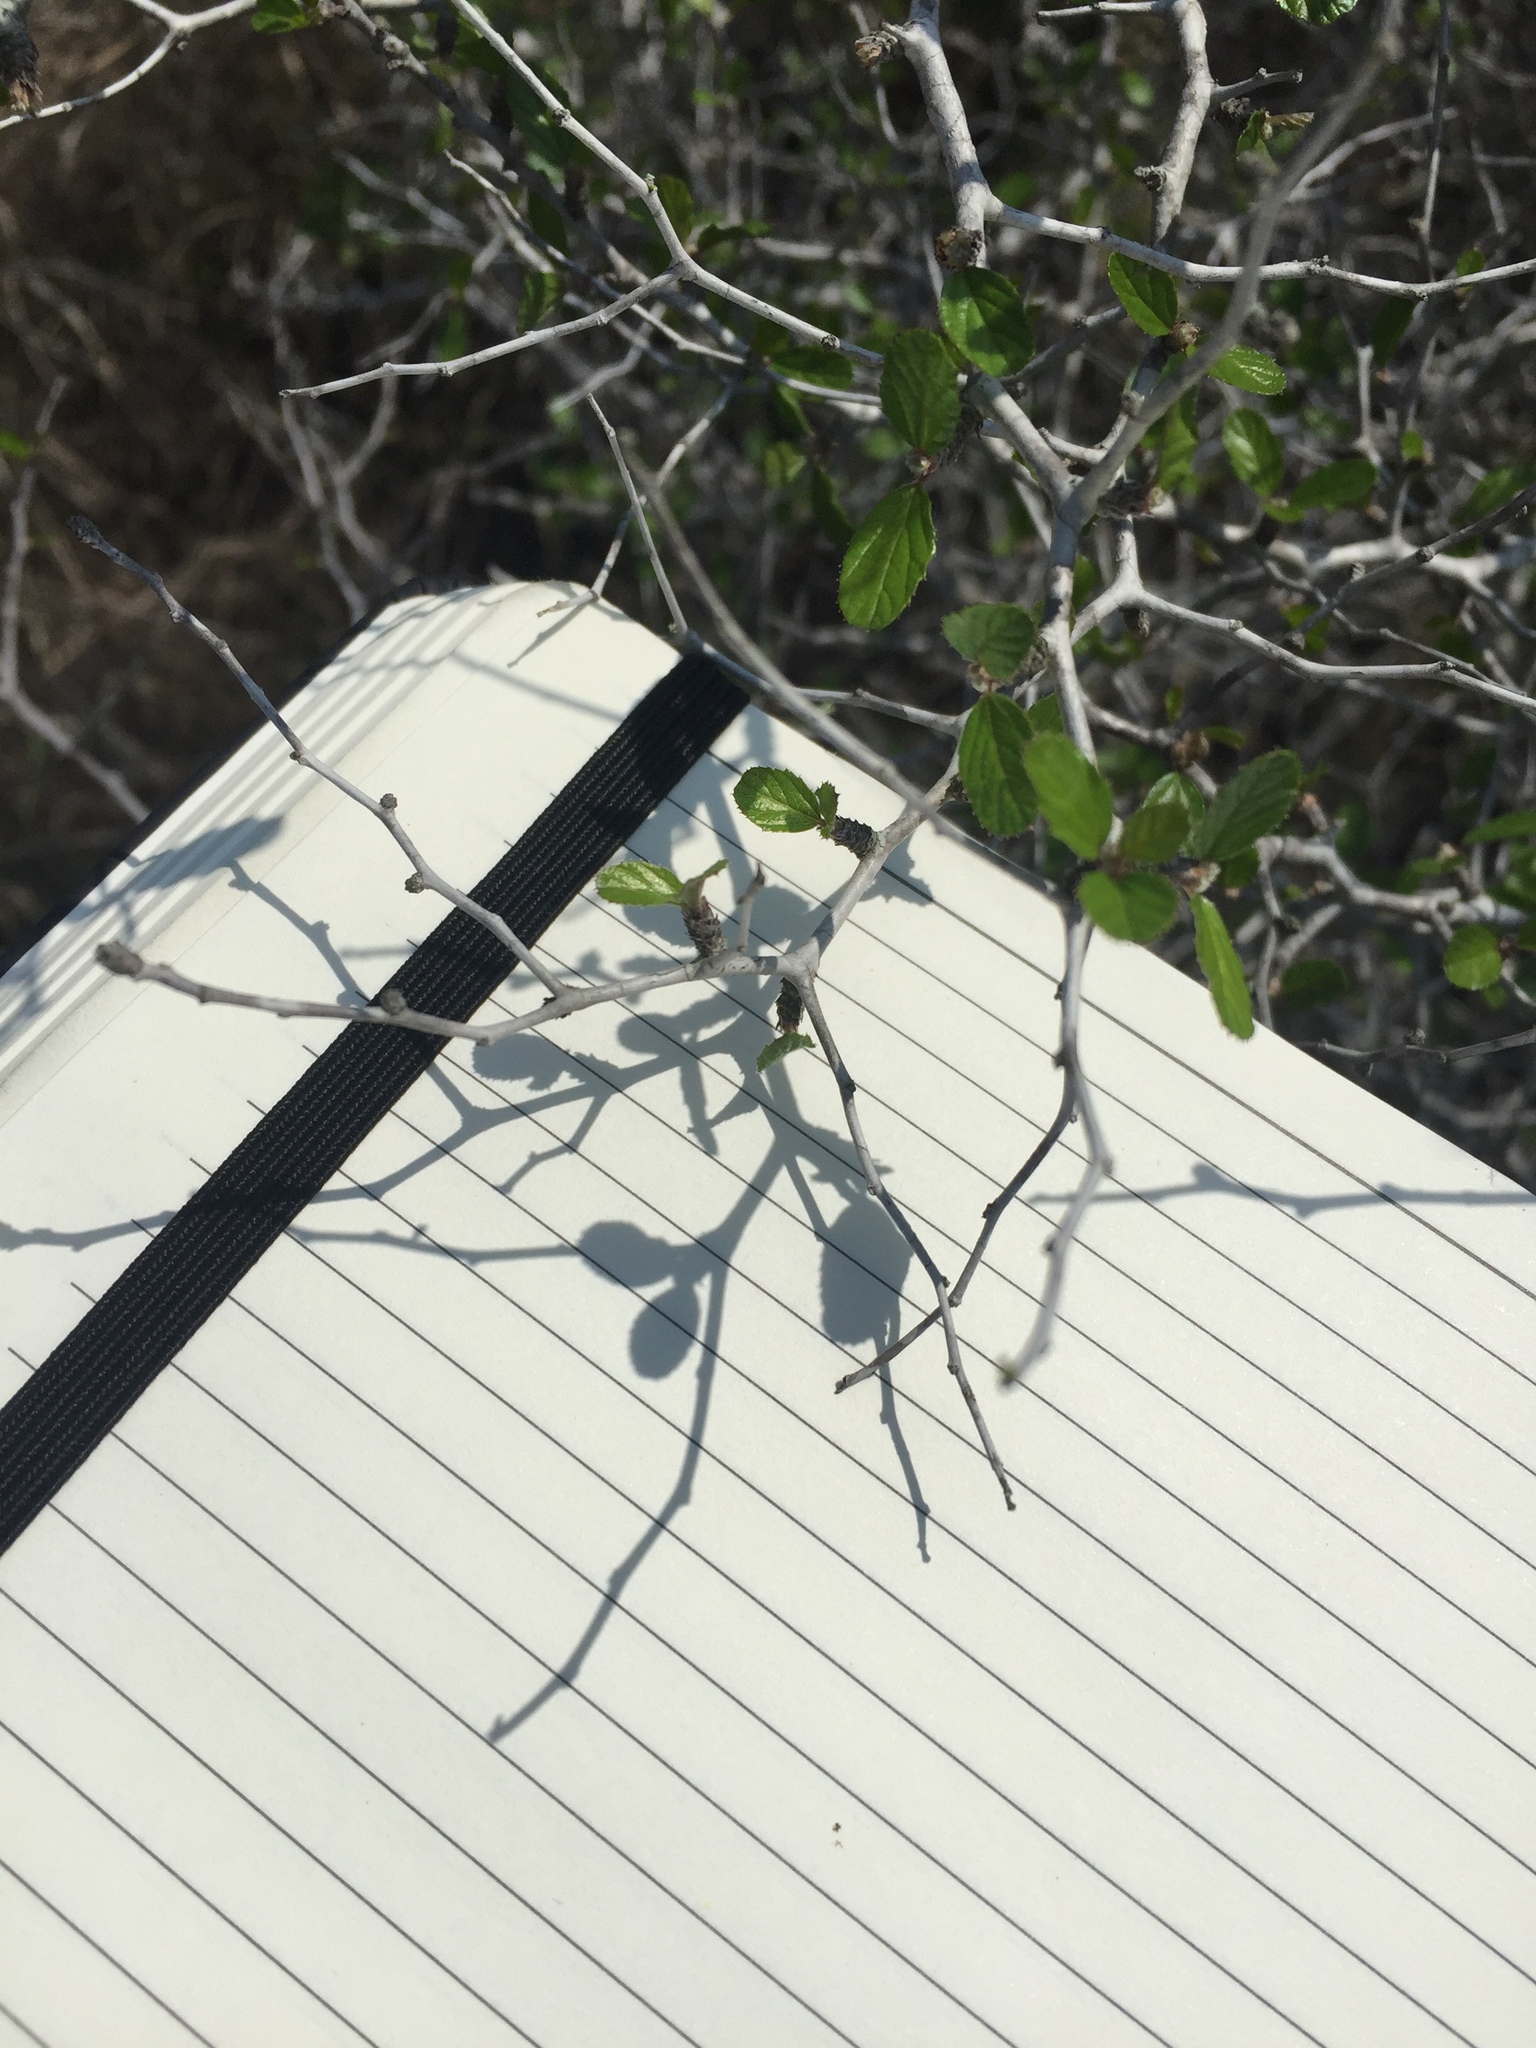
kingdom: Plantae
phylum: Tracheophyta
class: Magnoliopsida
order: Rosales
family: Rhamnaceae
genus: Colubrina
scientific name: Colubrina texensis
